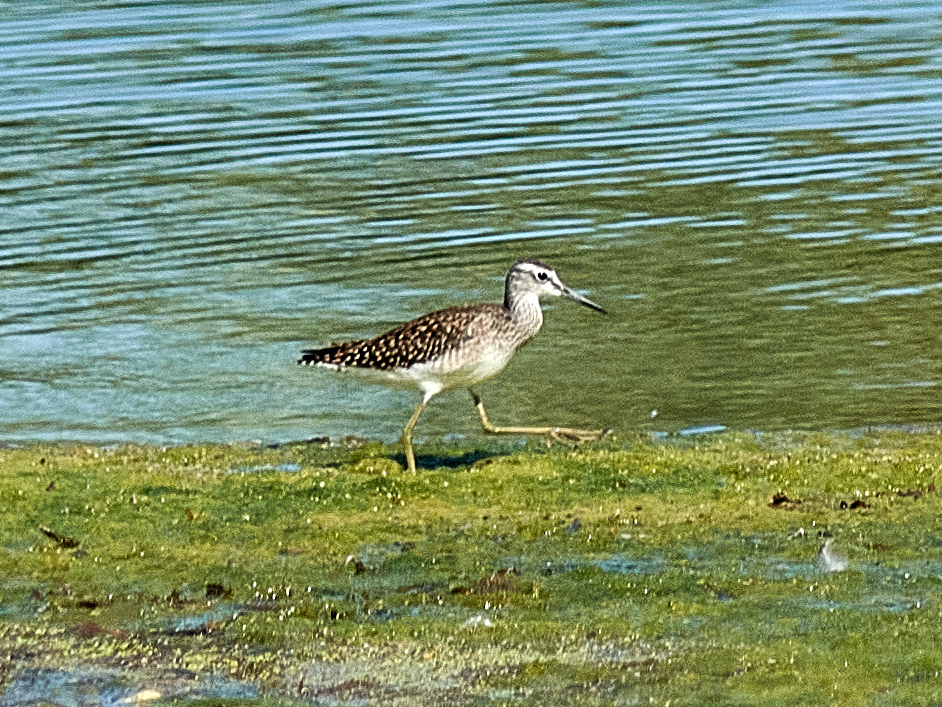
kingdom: Animalia
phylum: Chordata
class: Aves
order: Charadriiformes
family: Scolopacidae
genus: Tringa
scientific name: Tringa glareola
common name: Wood sandpiper
